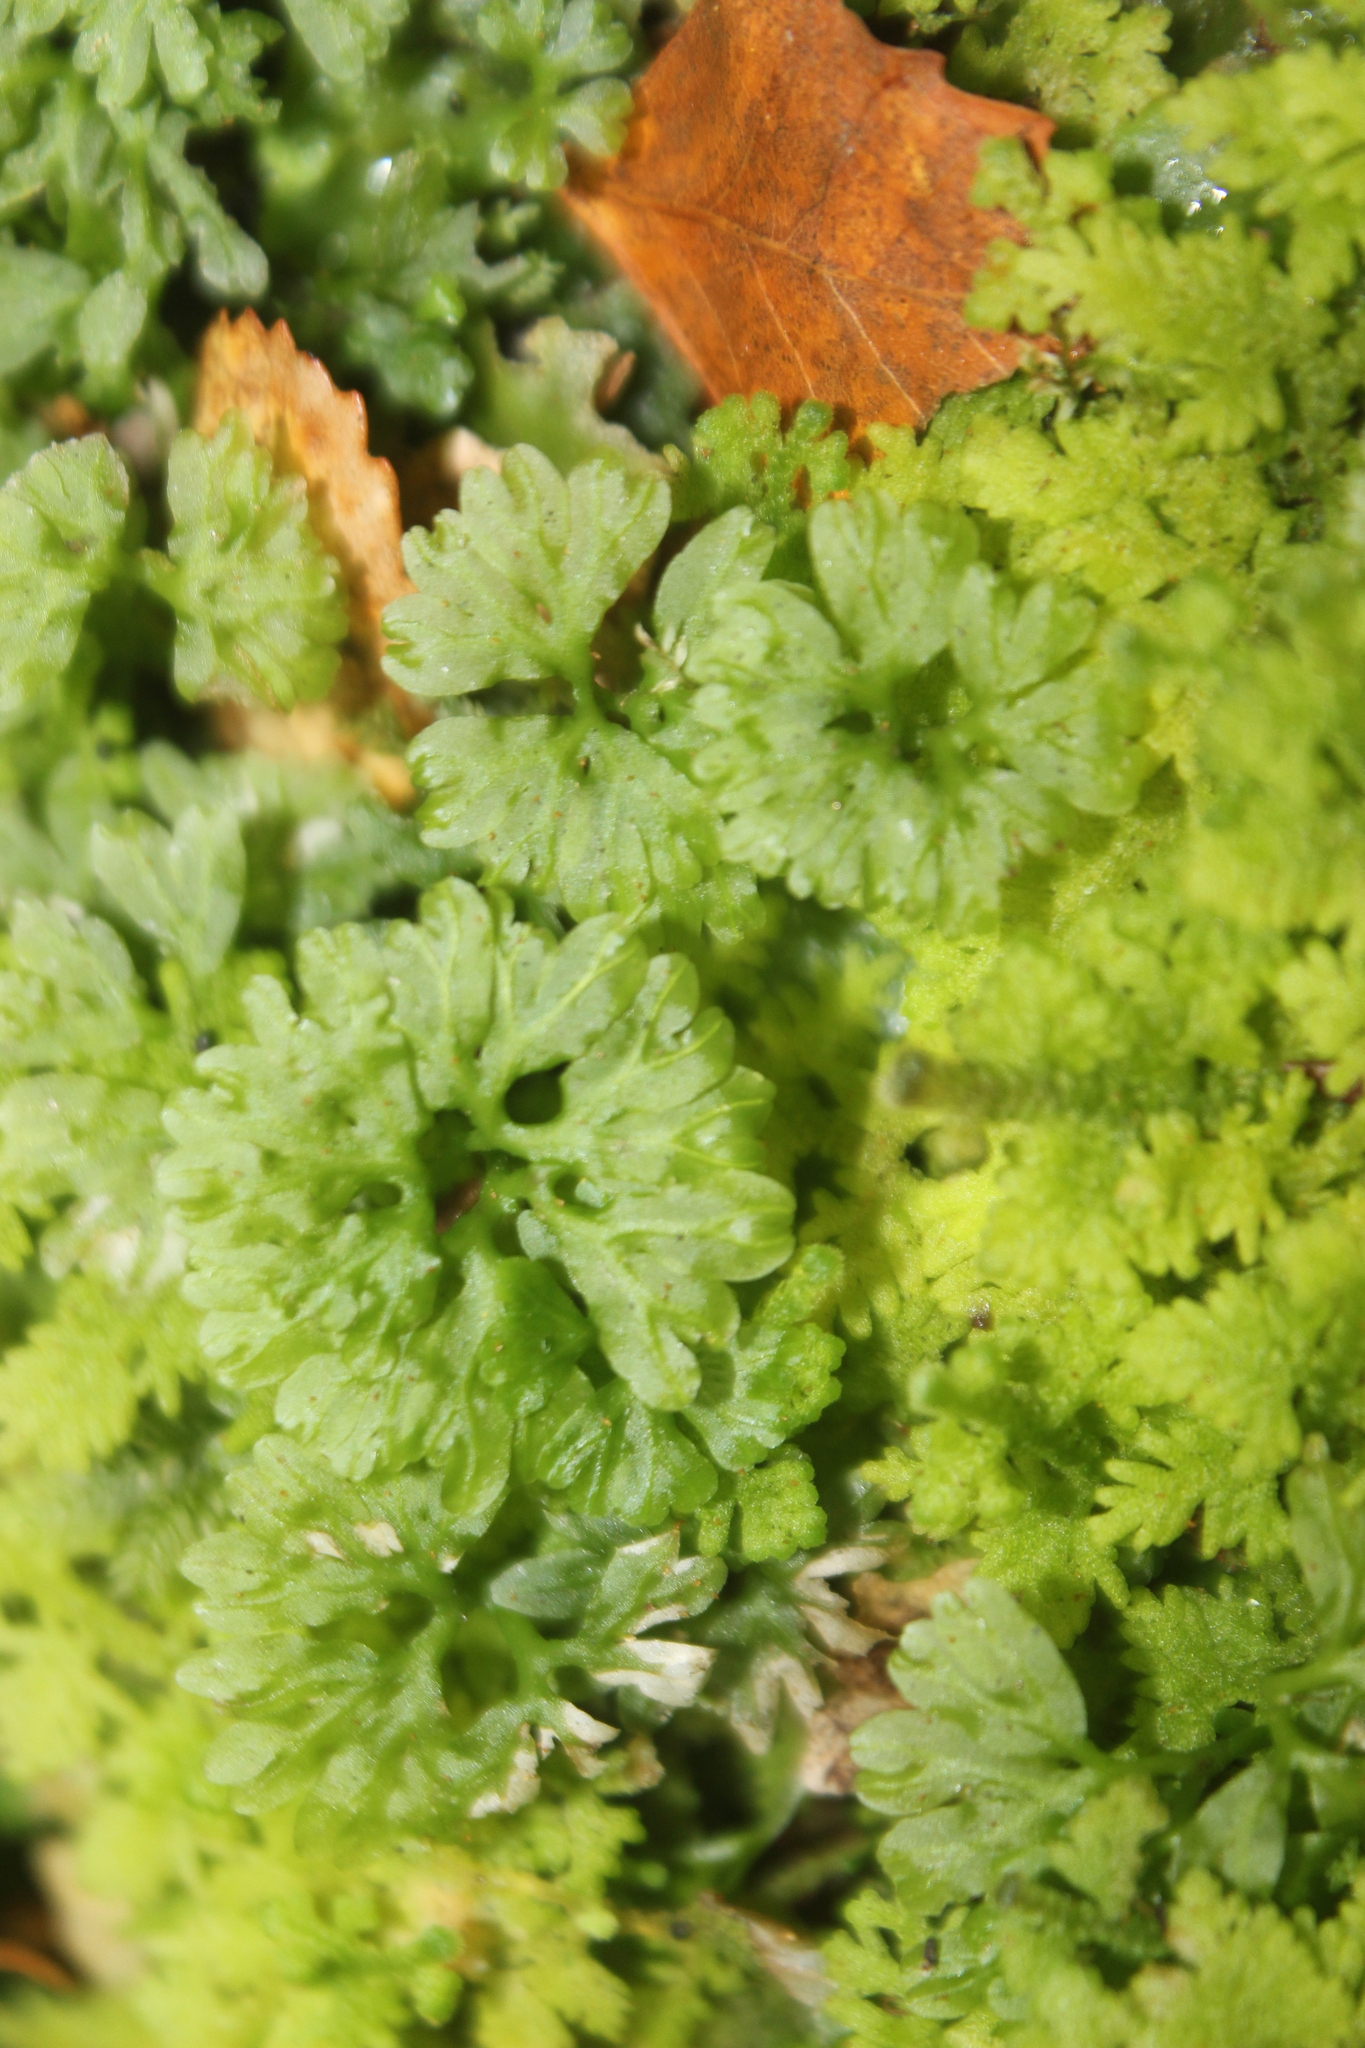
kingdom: Plantae
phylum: Marchantiophyta
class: Jungermanniopsida
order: Pallaviciniales
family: Hymenophytaceae
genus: Hymenophyton
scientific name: Hymenophyton flabellatum
